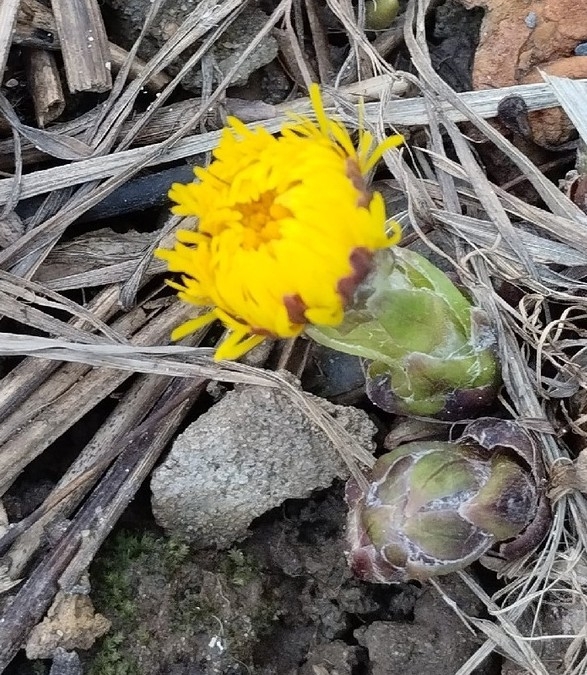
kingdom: Plantae
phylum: Tracheophyta
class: Magnoliopsida
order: Asterales
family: Asteraceae
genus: Tussilago
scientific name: Tussilago farfara
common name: Coltsfoot
